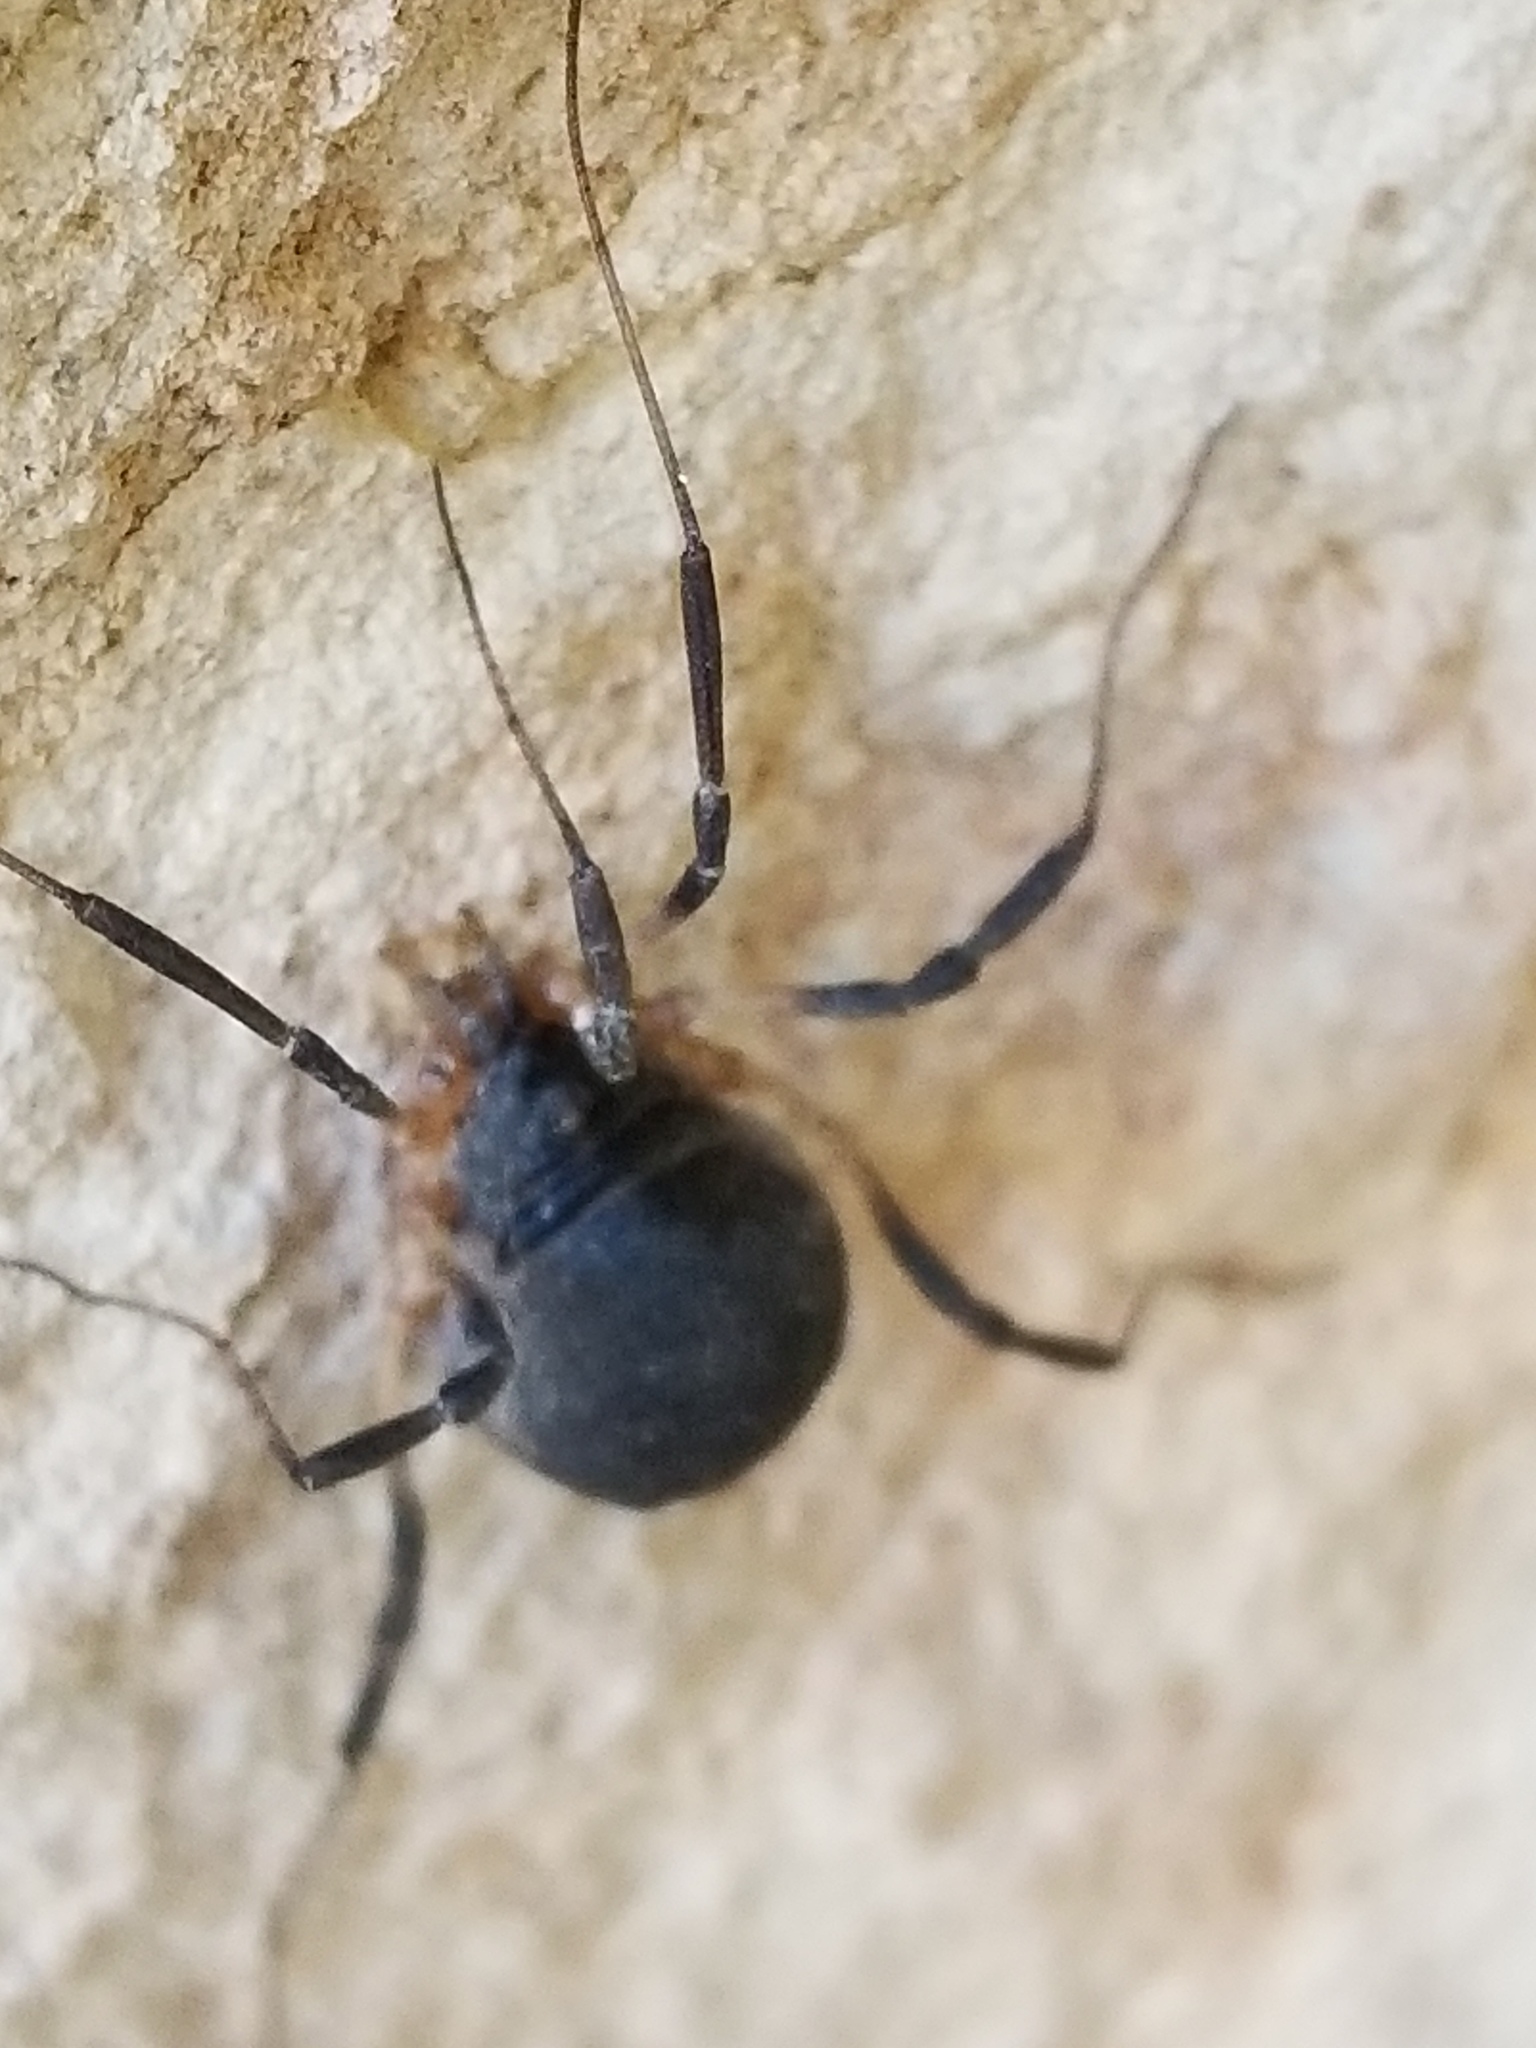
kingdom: Animalia
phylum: Arthropoda
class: Arachnida
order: Opiliones
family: Sclerosomatidae
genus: Eumesosoma
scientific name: Eumesosoma roeweri
